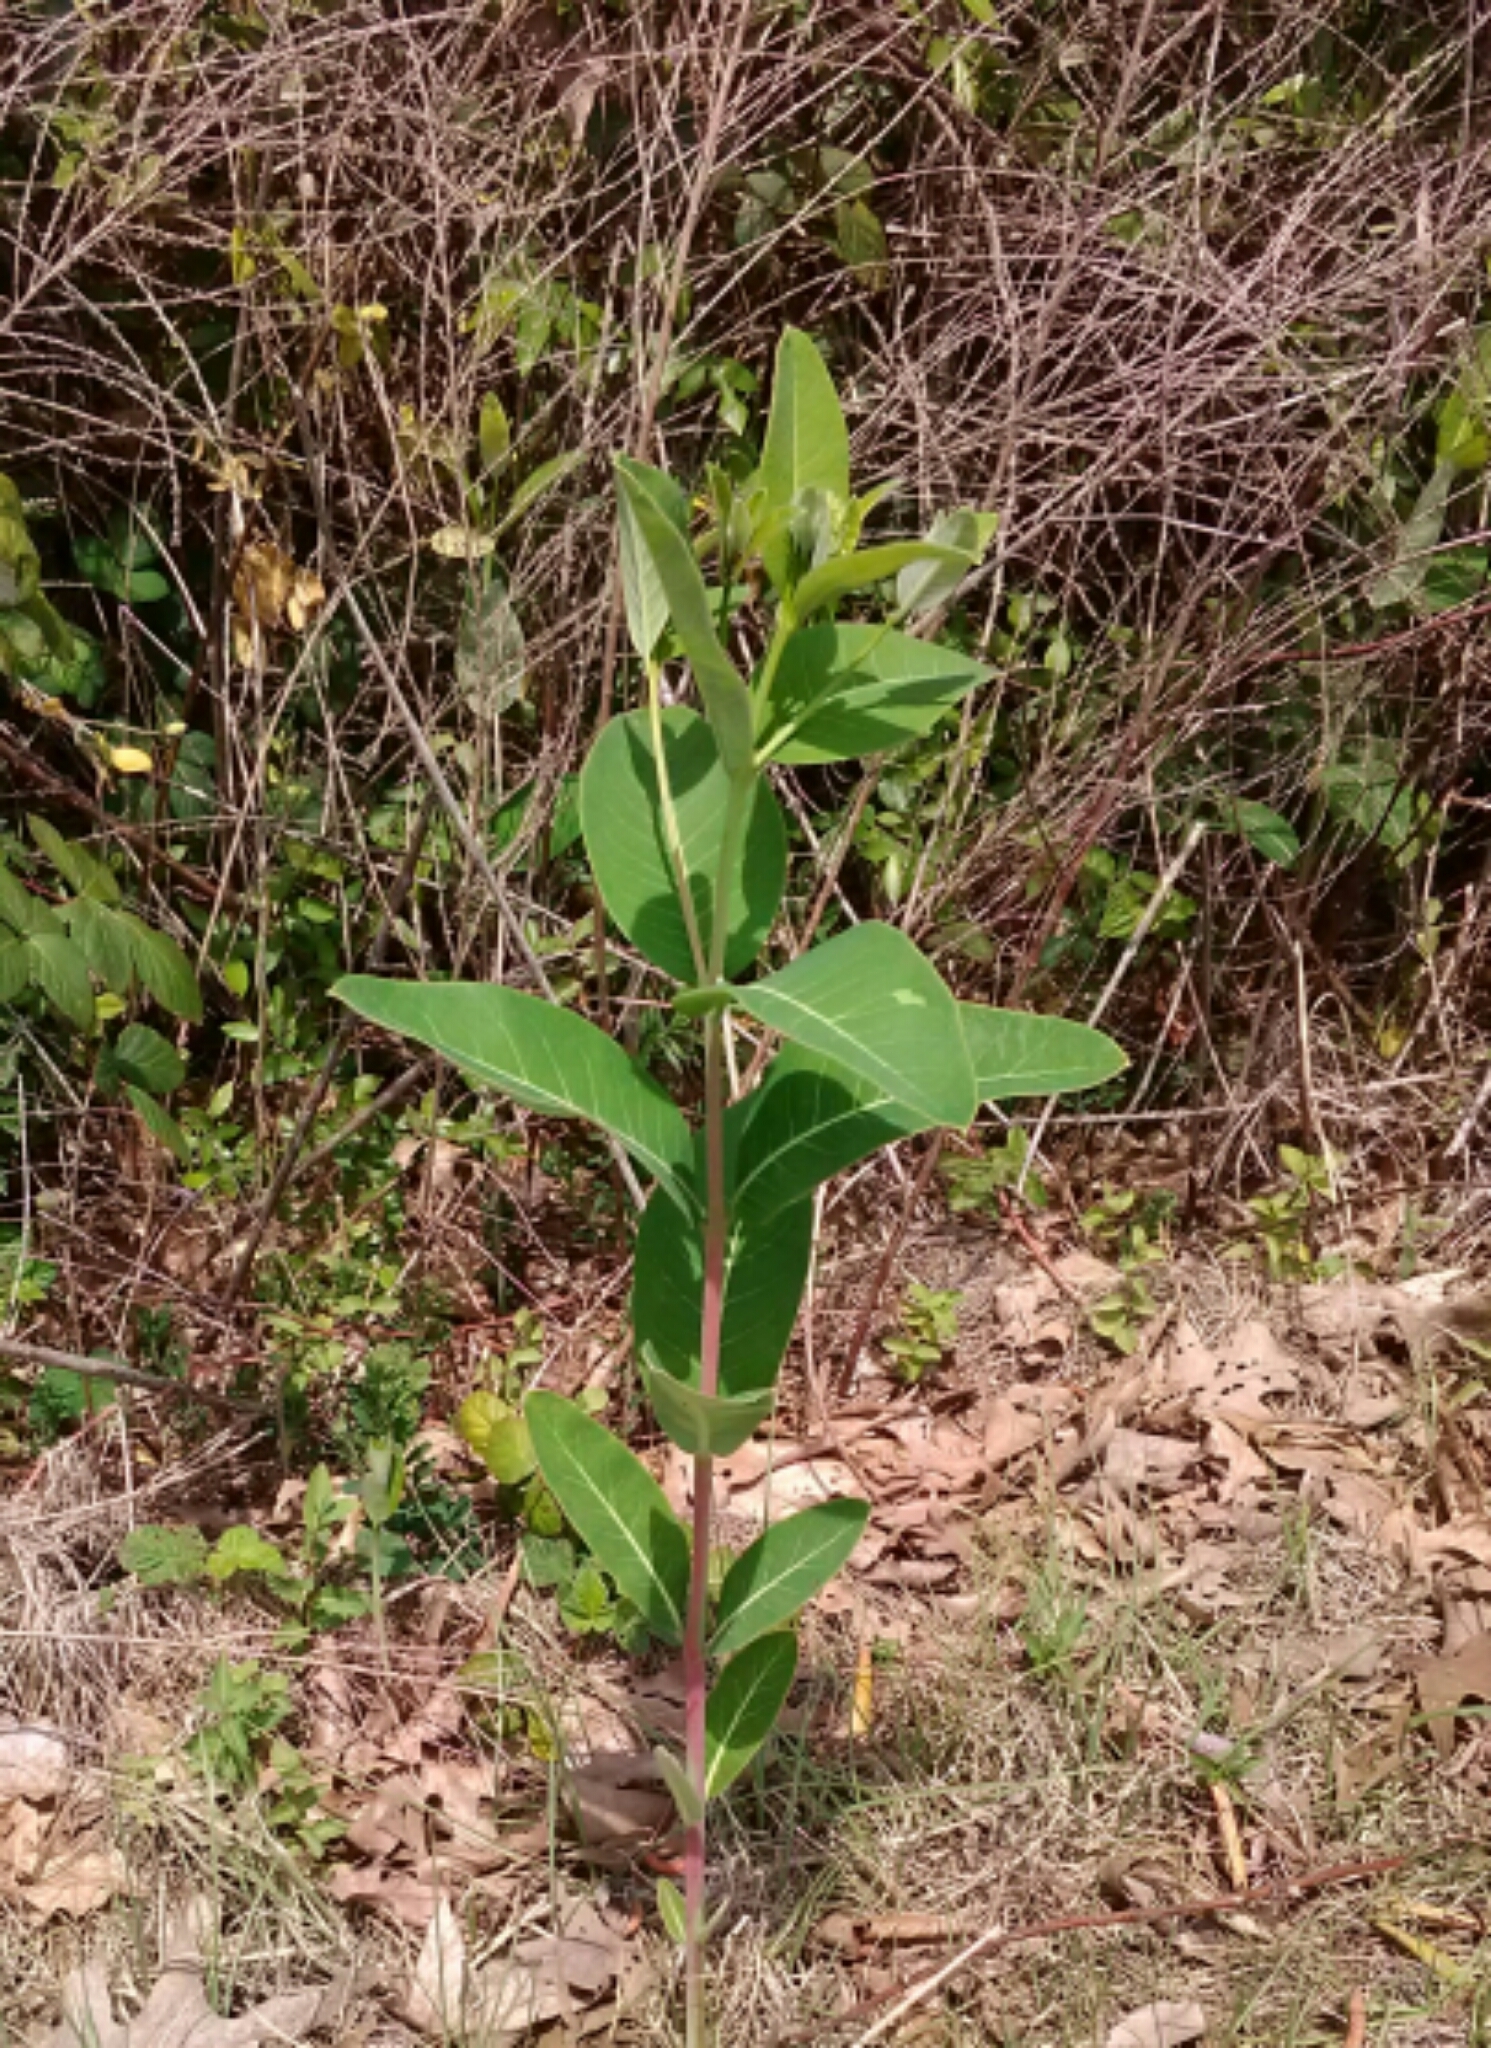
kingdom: Plantae
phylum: Tracheophyta
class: Magnoliopsida
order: Gentianales
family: Apocynaceae
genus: Apocynum
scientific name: Apocynum cannabinum
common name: Hemp dogbane
